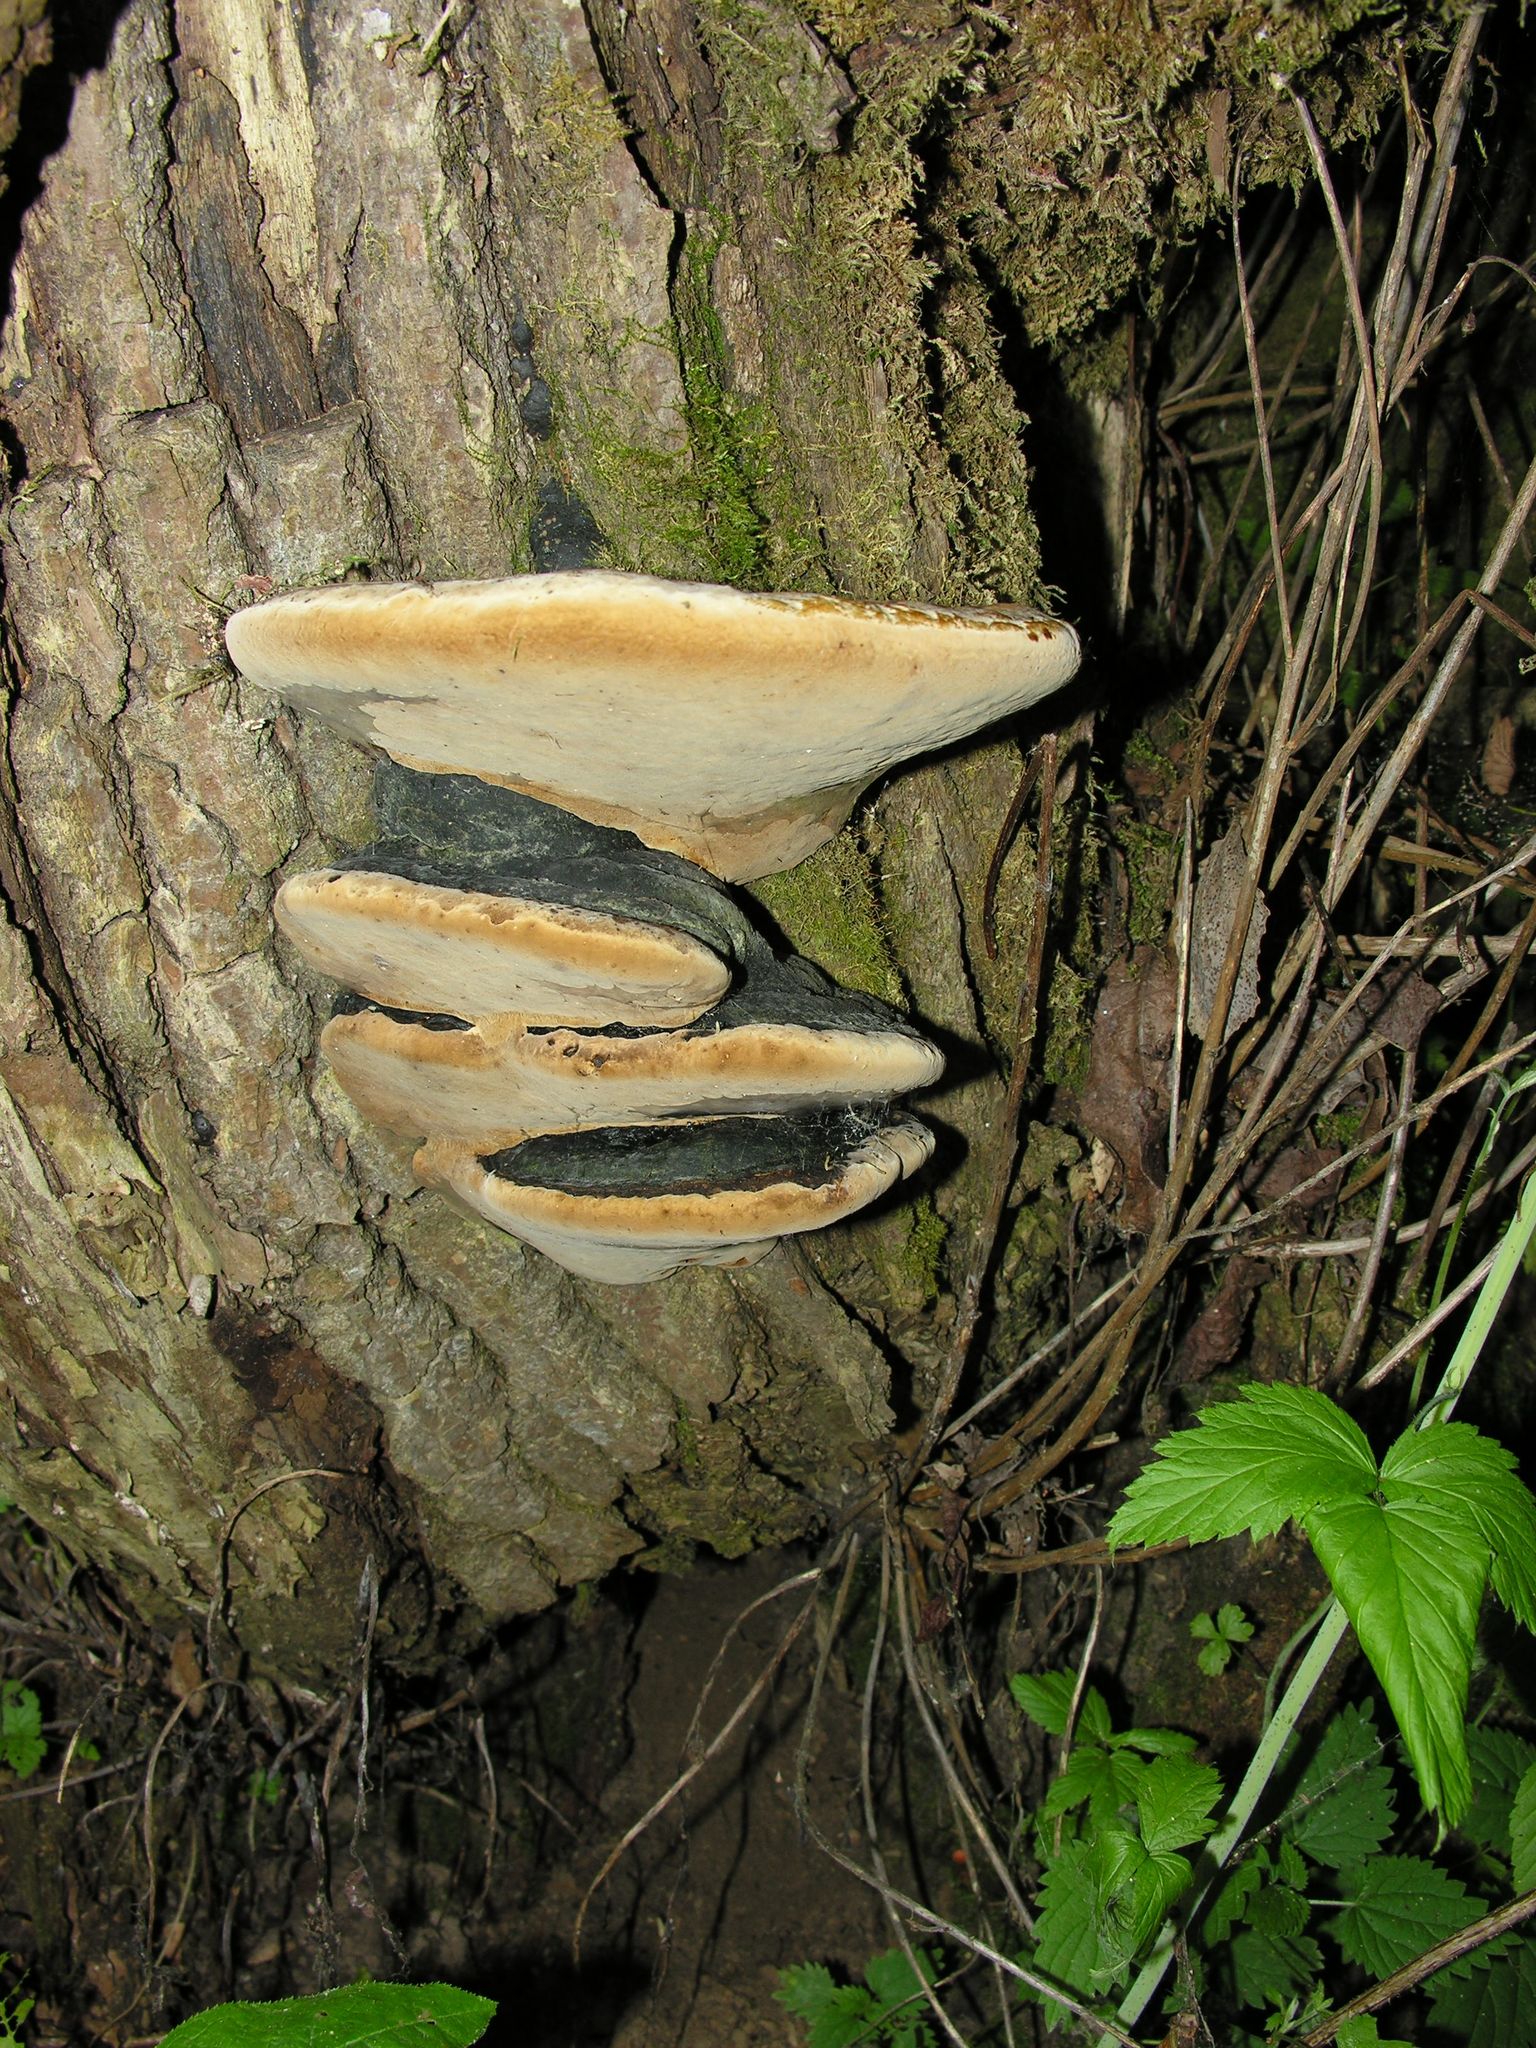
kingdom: Fungi
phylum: Basidiomycota
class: Agaricomycetes
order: Hymenochaetales
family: Hymenochaetaceae
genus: Phellinus
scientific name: Phellinus igniarius
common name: Willow bracket
